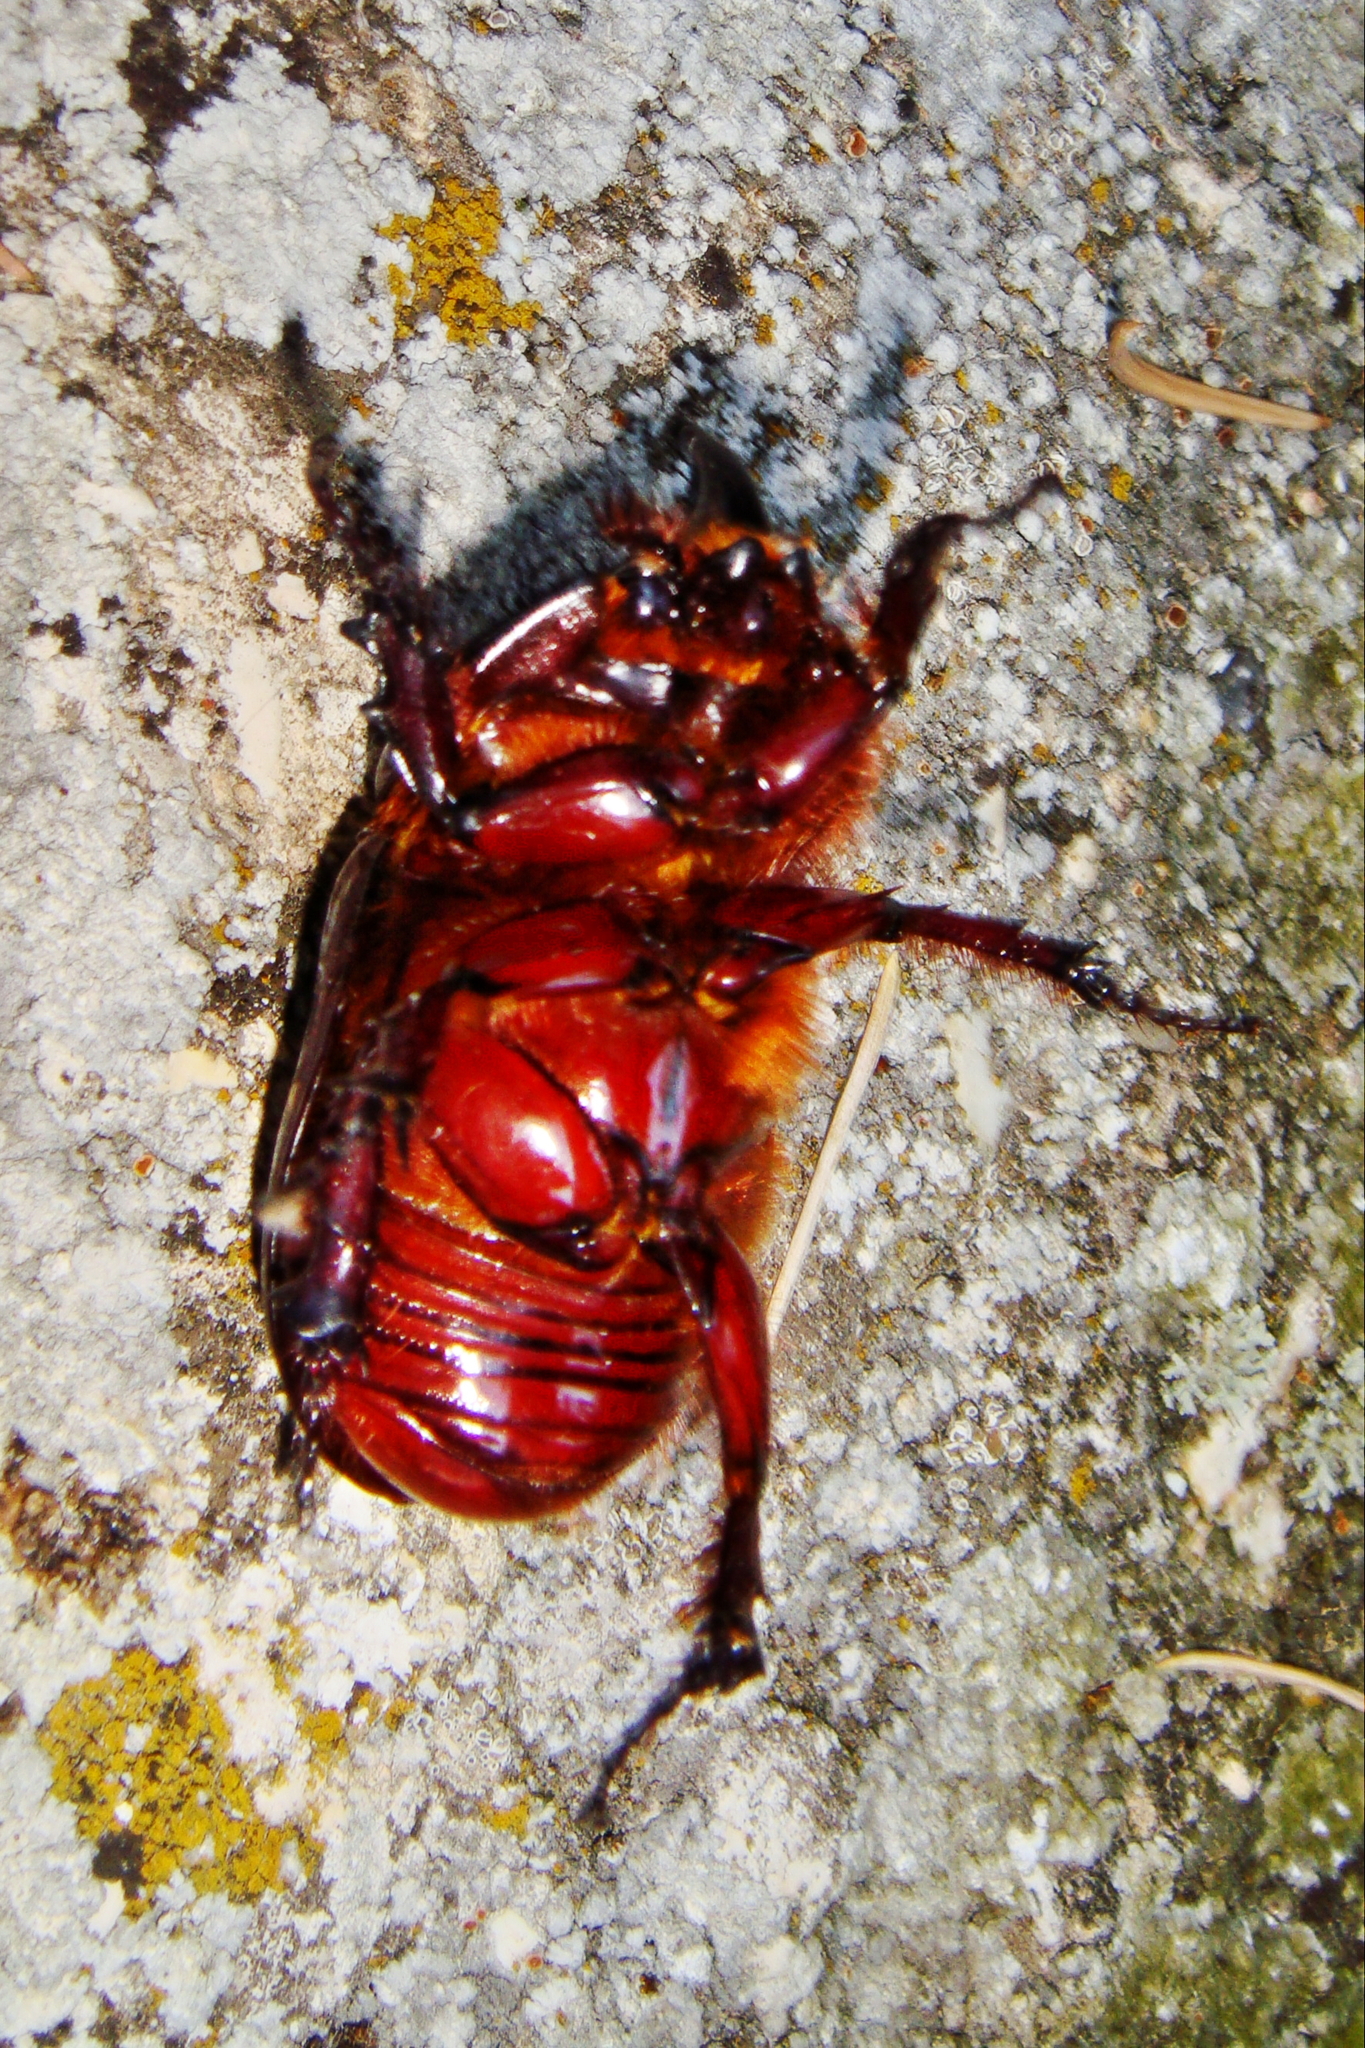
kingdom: Animalia
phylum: Arthropoda
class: Insecta
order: Coleoptera
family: Scarabaeidae
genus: Oryctes
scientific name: Oryctes nasicornis
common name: European rhinoceros beetle
